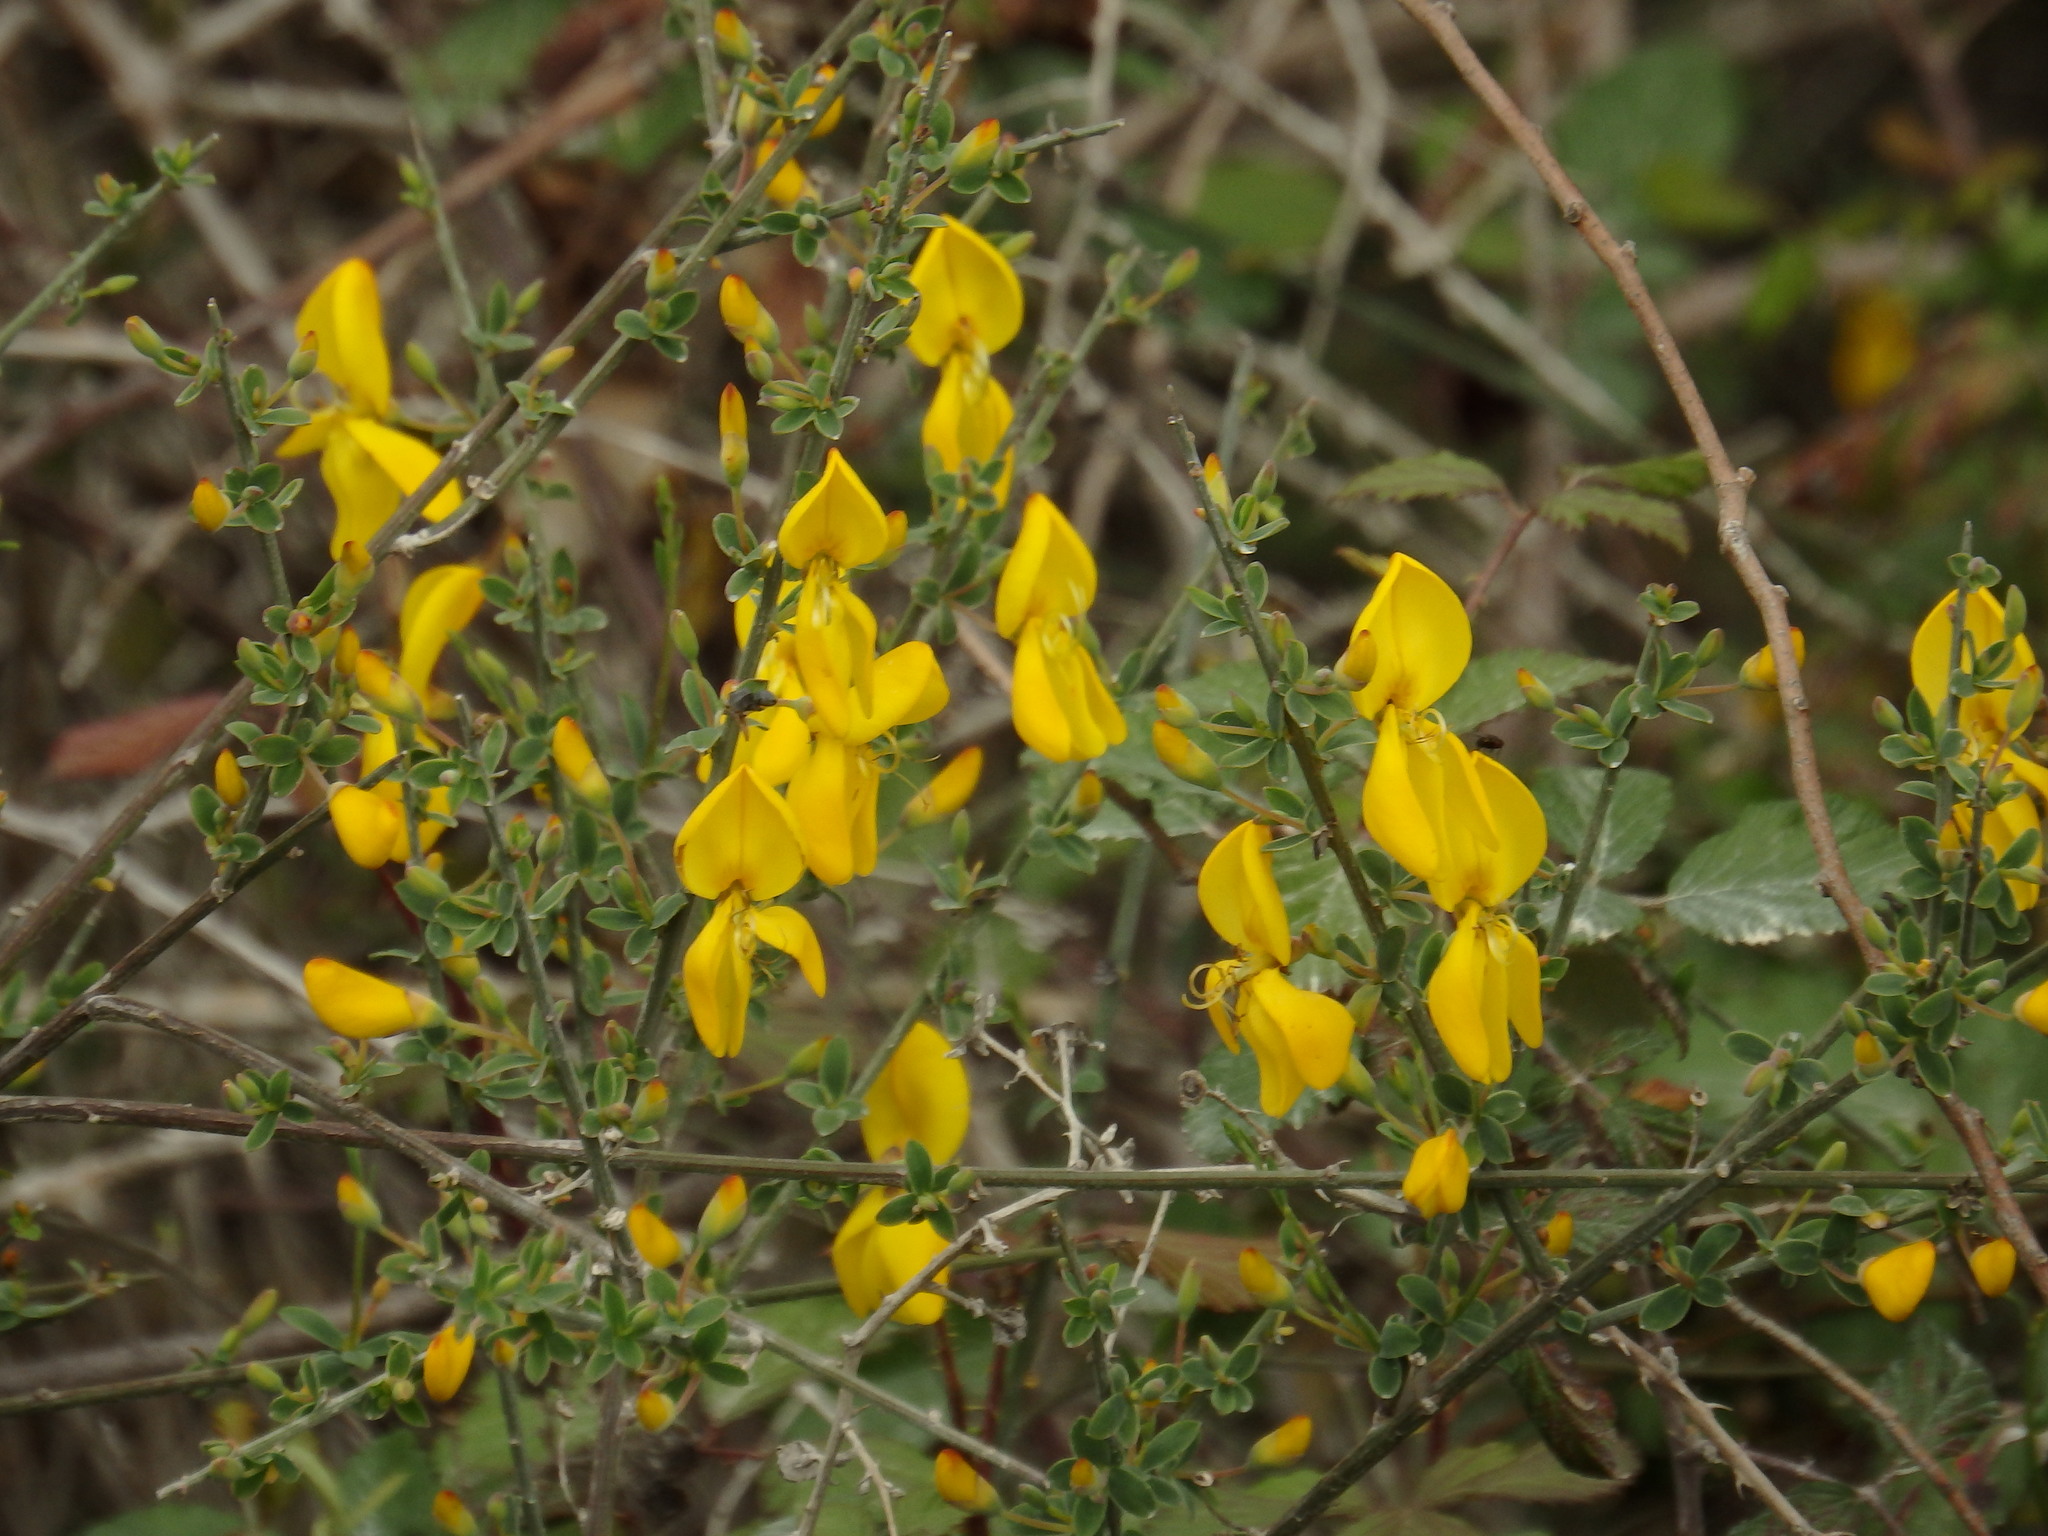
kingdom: Plantae
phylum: Tracheophyta
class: Magnoliopsida
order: Fabales
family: Fabaceae
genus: Cytisus
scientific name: Cytisus grandiflorus
